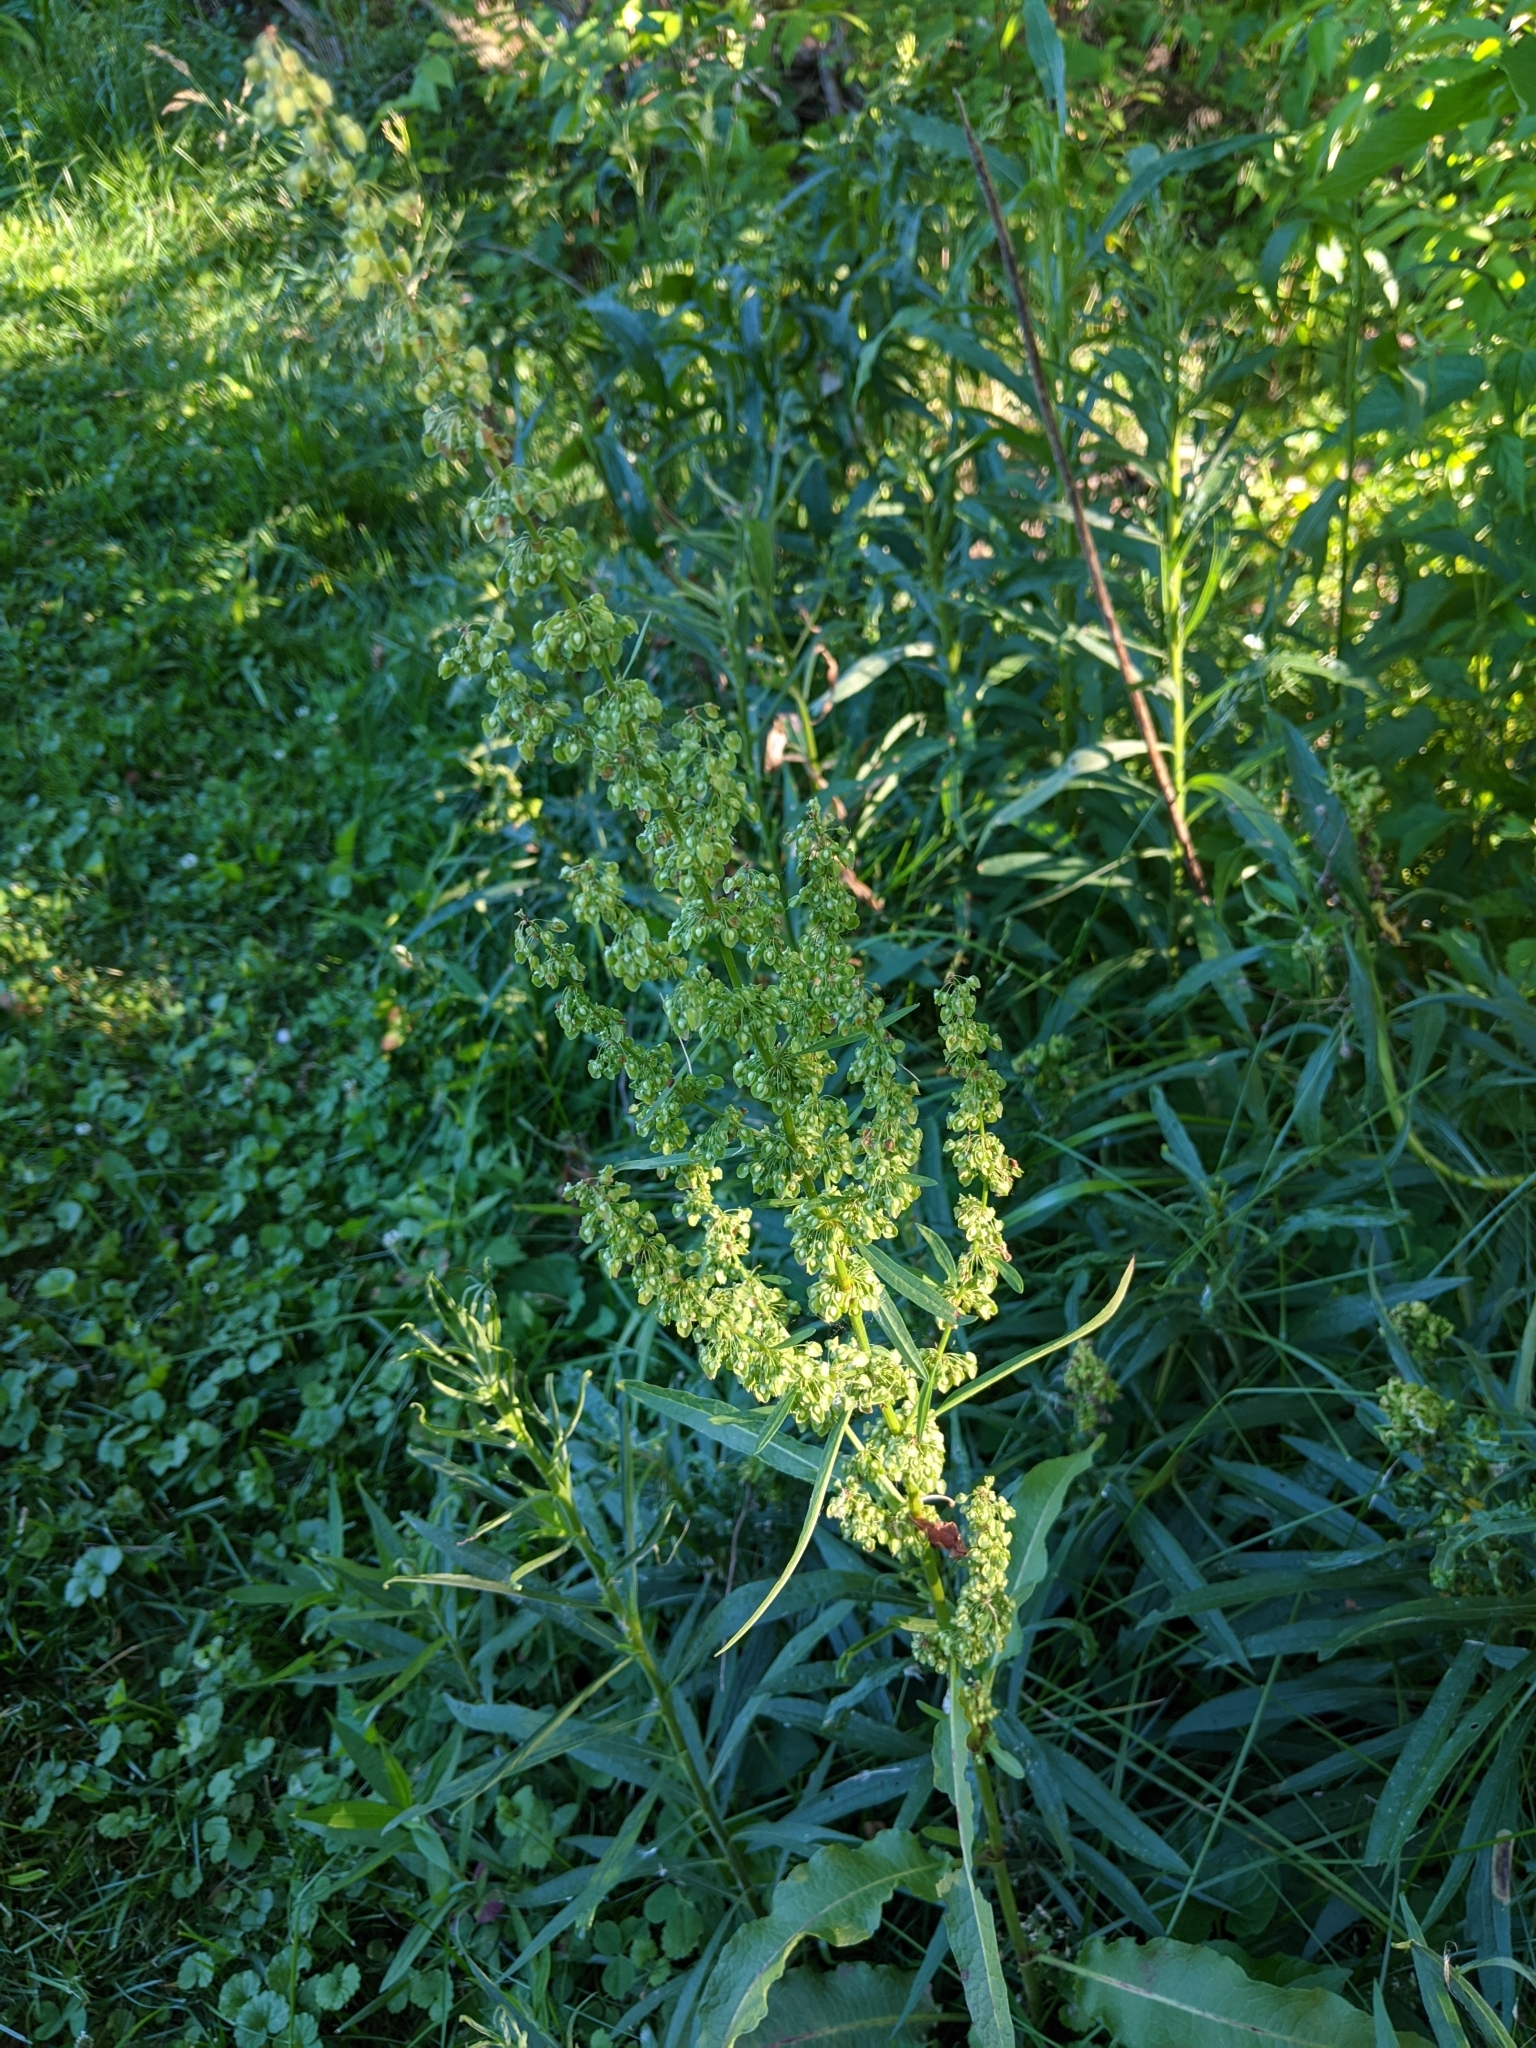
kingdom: Plantae
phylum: Tracheophyta
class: Magnoliopsida
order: Caryophyllales
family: Polygonaceae
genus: Rumex
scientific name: Rumex crispus
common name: Curled dock
